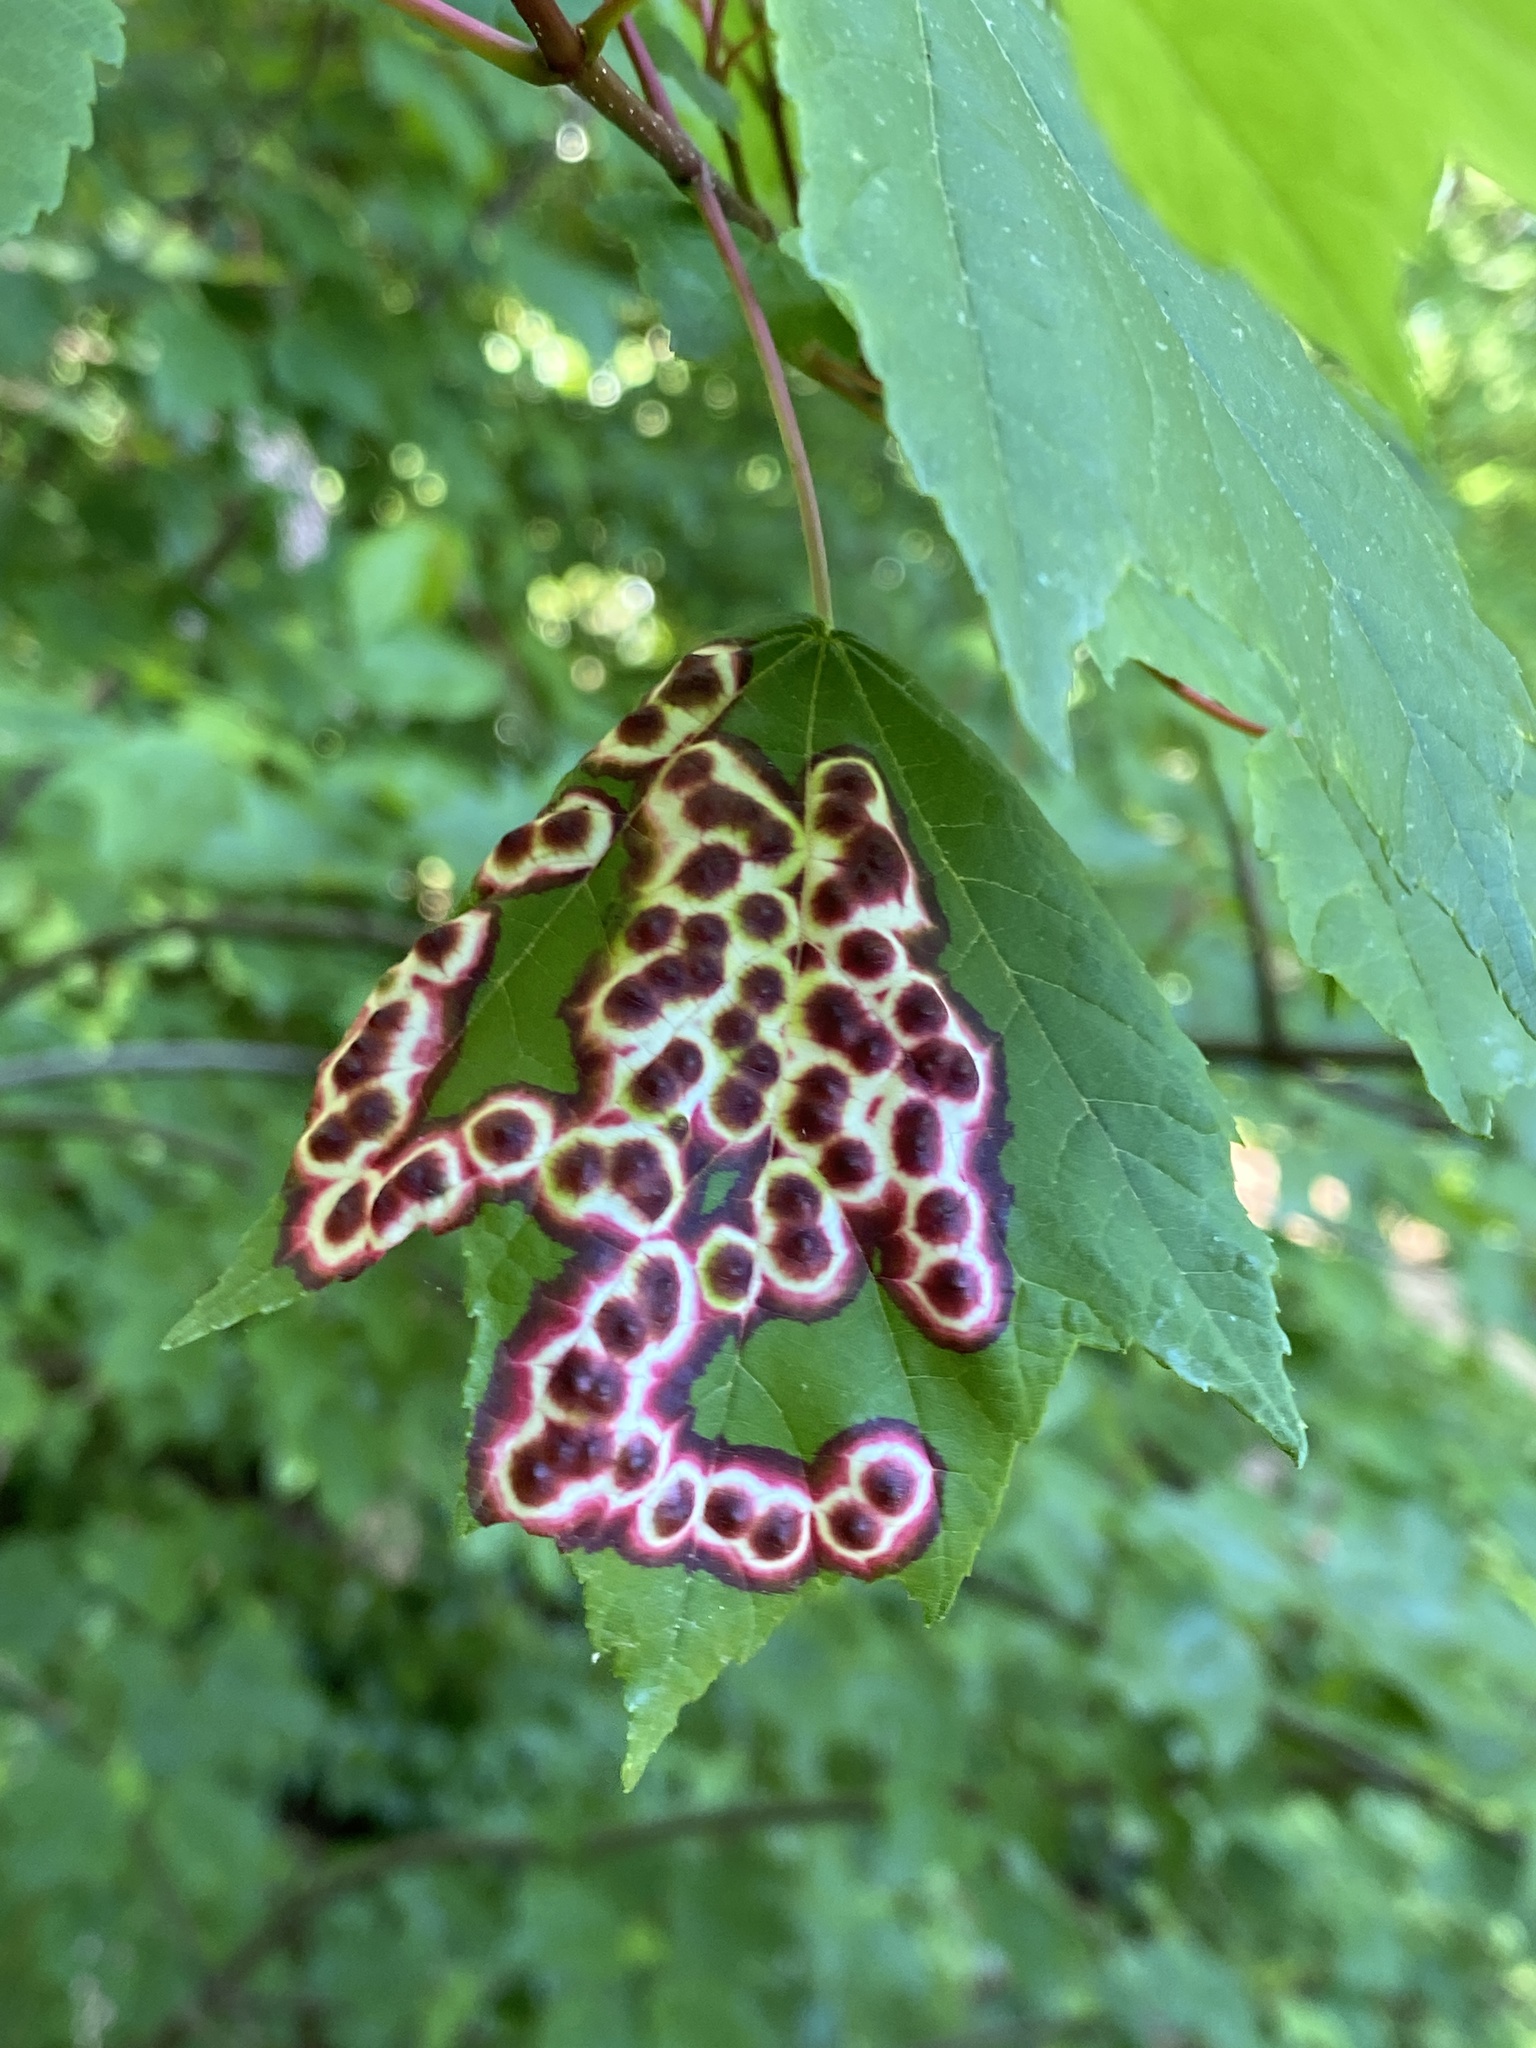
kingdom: Animalia
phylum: Arthropoda
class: Insecta
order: Diptera
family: Cecidomyiidae
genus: Acericecis
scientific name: Acericecis ocellaris
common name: Ocellate gall midge
